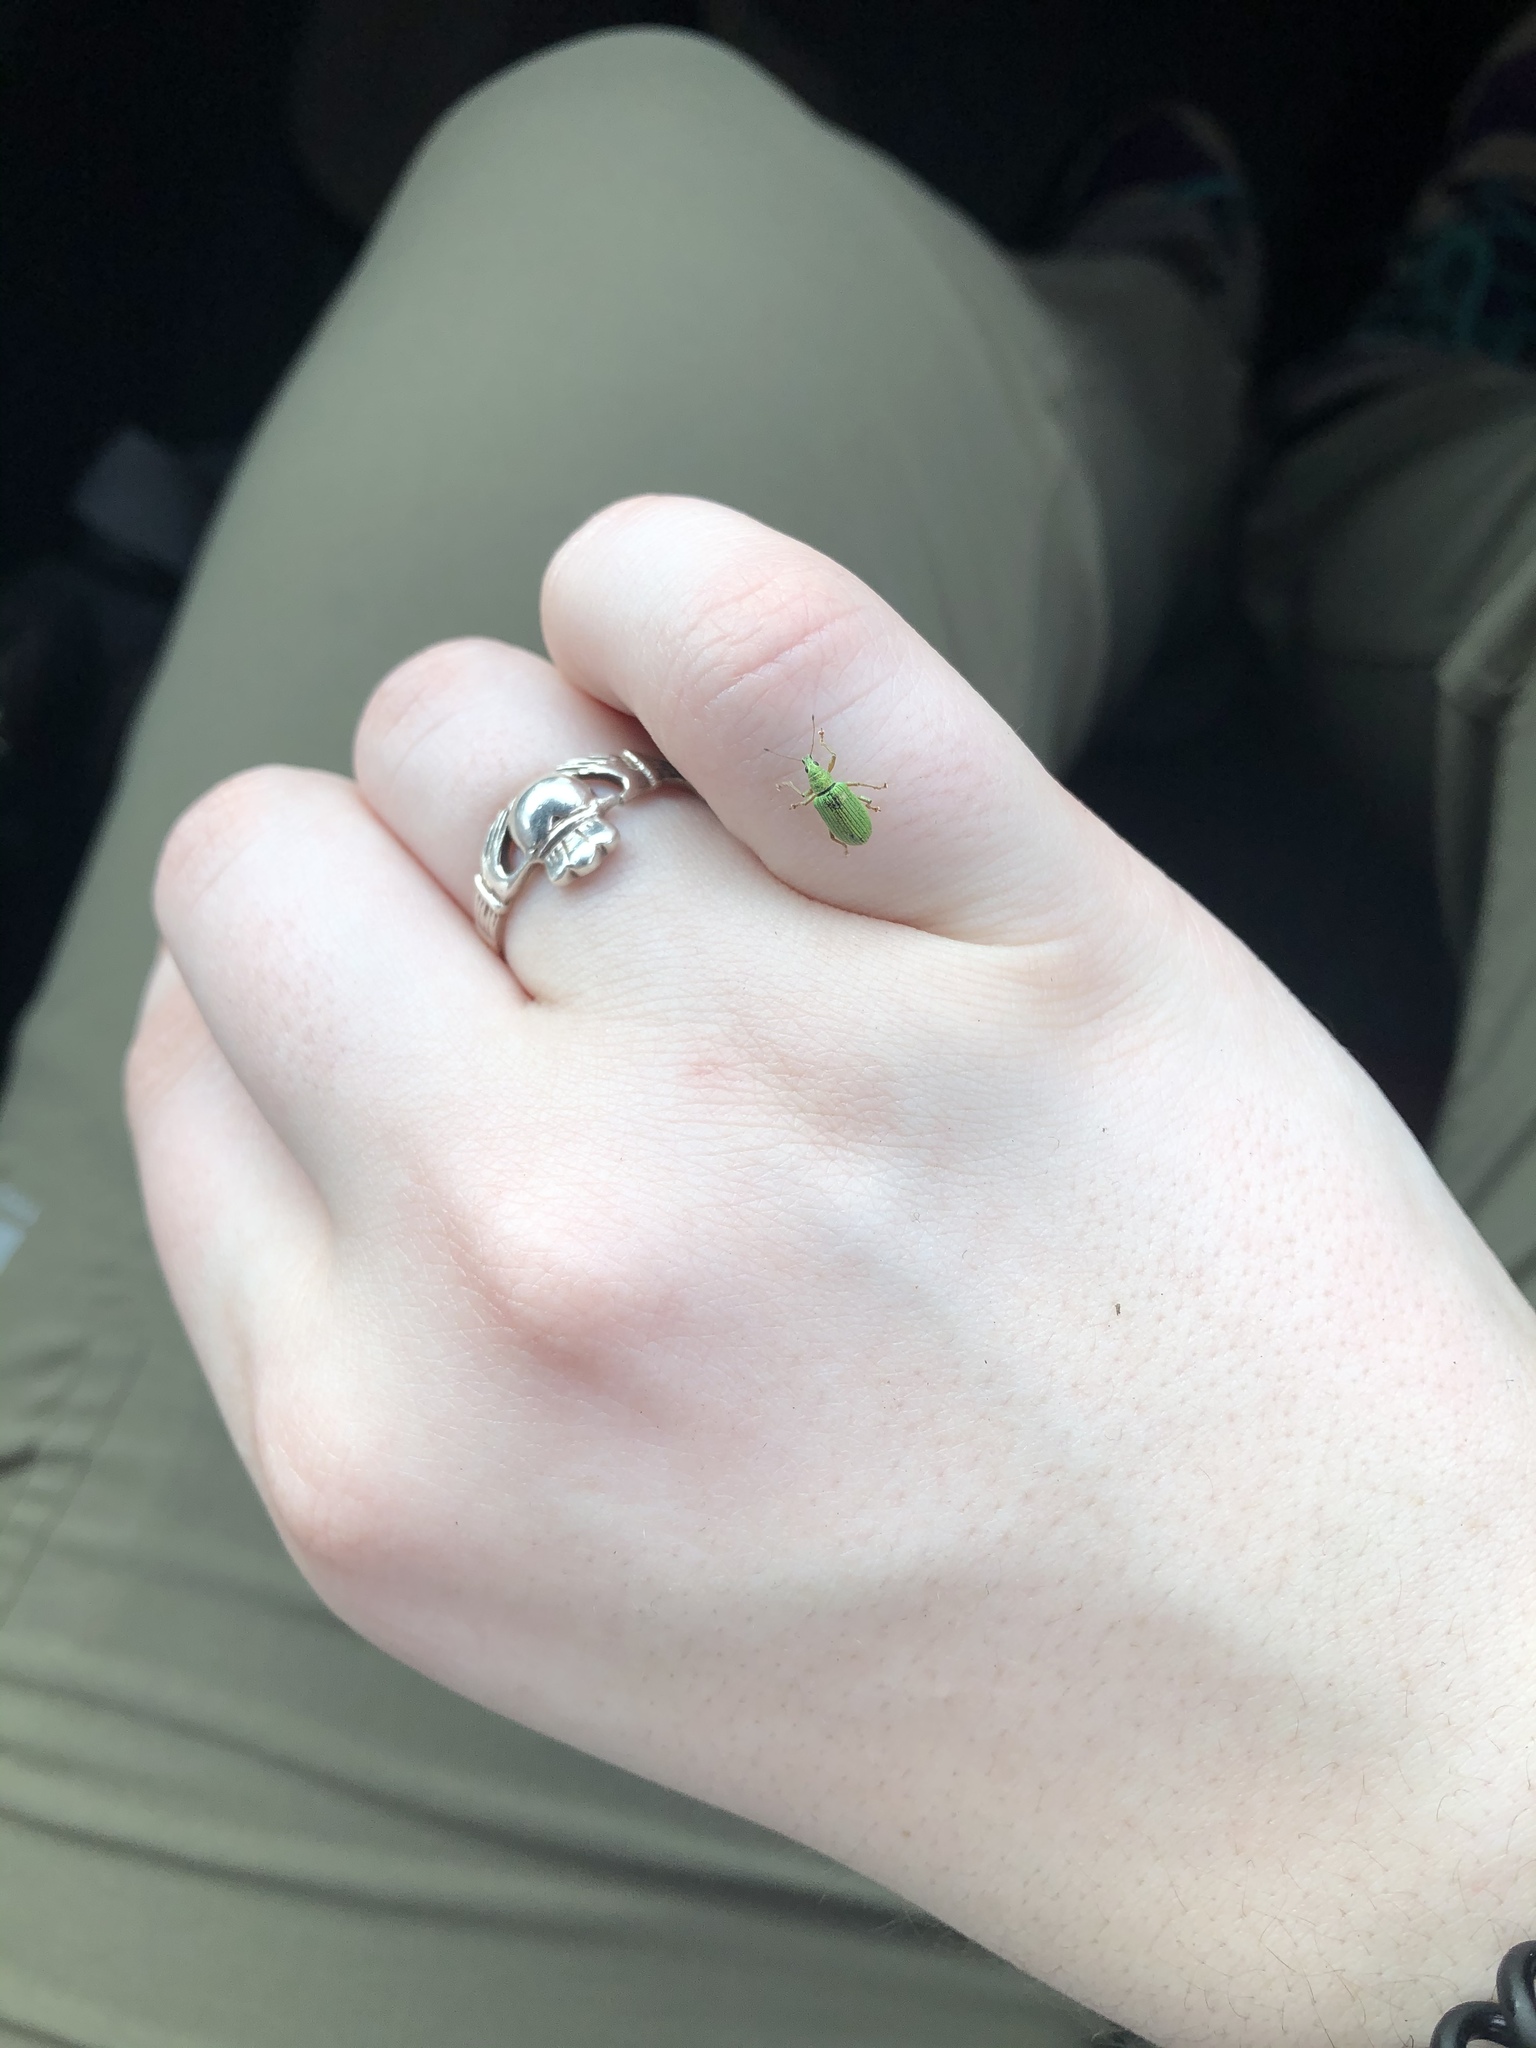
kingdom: Animalia
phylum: Arthropoda
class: Insecta
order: Coleoptera
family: Curculionidae
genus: Polydrusus
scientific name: Polydrusus formosus
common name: Weevil
